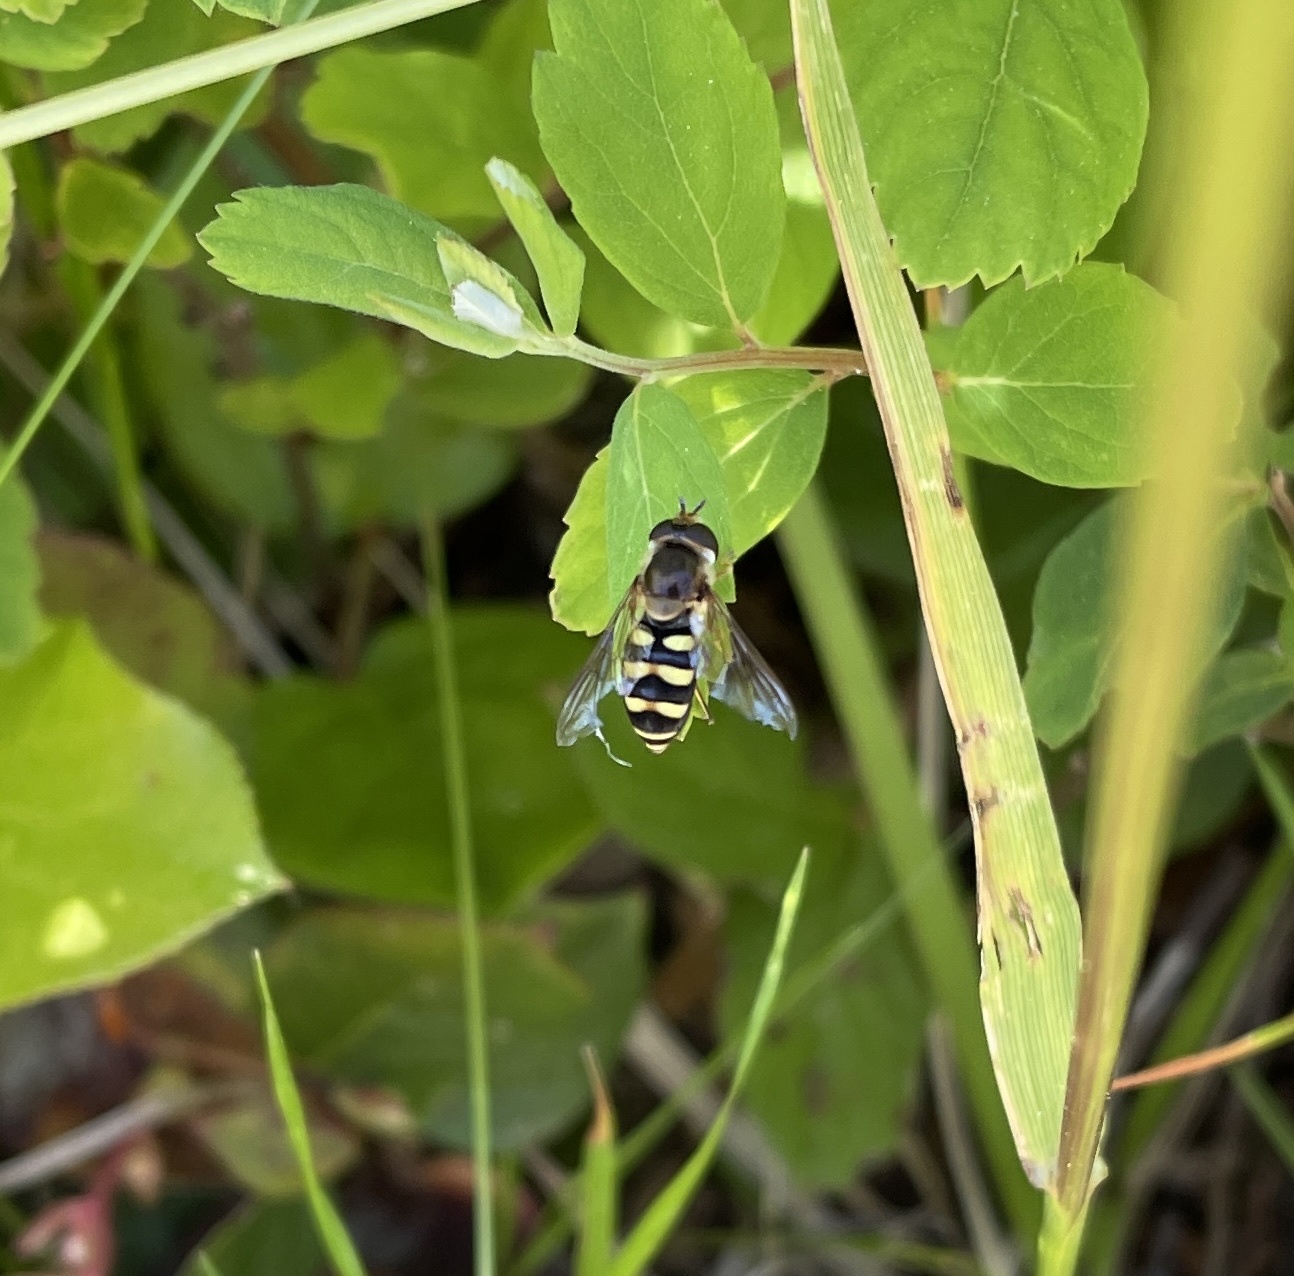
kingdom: Animalia
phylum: Arthropoda
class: Insecta
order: Diptera
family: Syrphidae
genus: Eupeodes
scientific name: Eupeodes fumipennis
